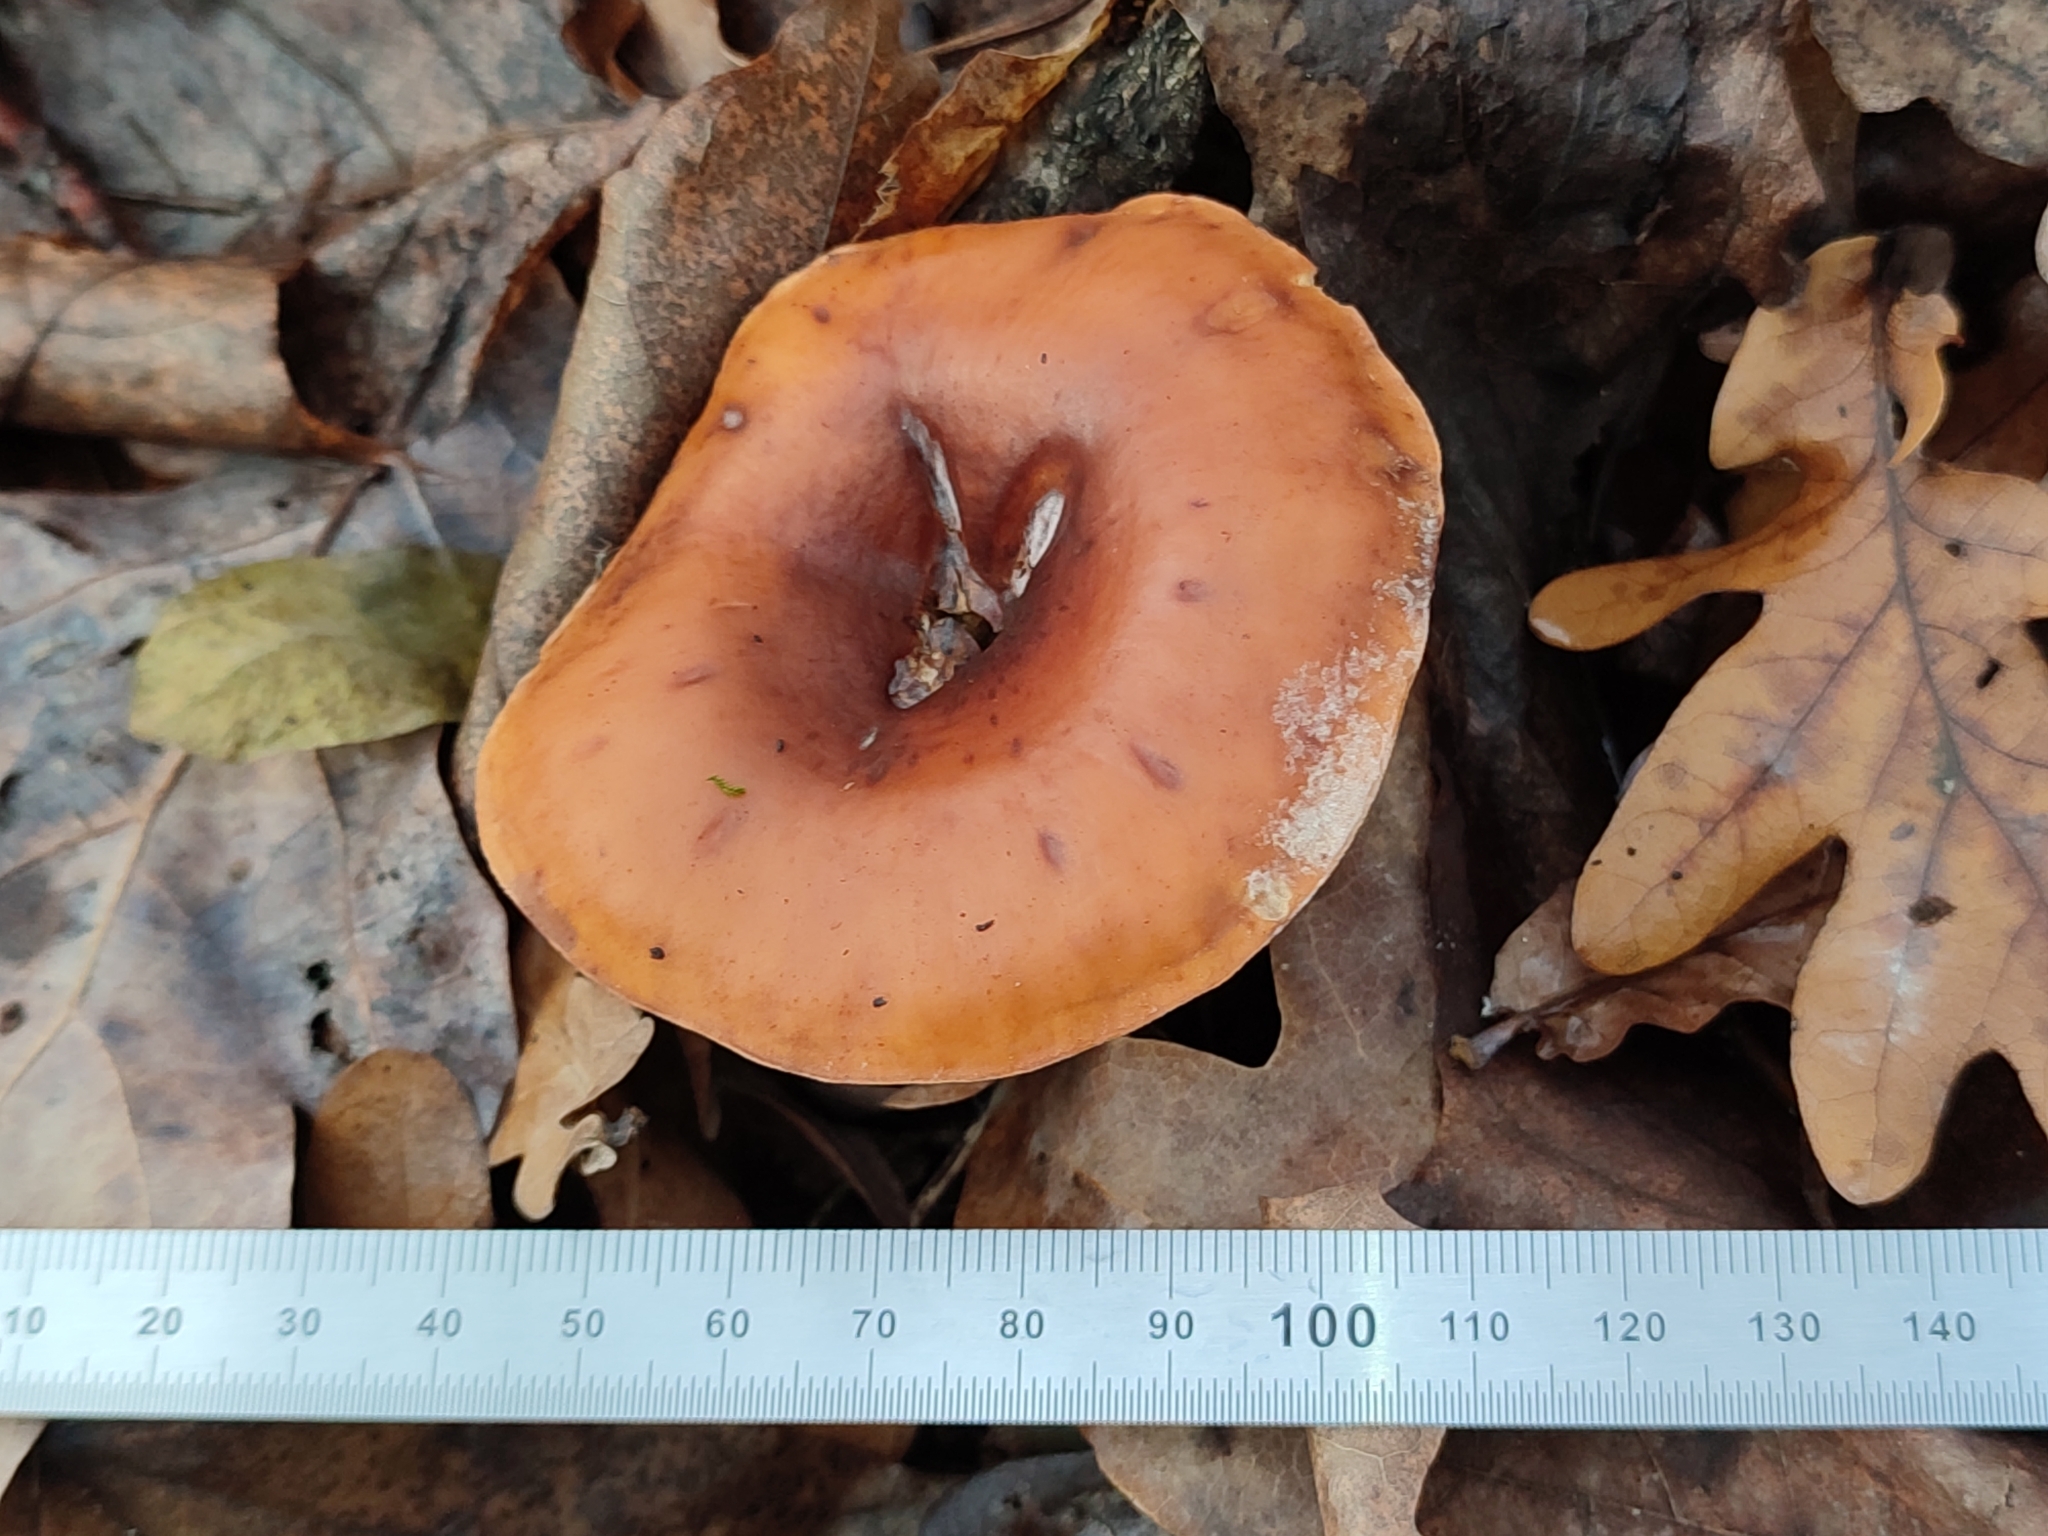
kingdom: Fungi
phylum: Basidiomycota
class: Agaricomycetes
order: Agaricales
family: Tricholomataceae
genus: Paralepista
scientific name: Paralepista flaccida
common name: Tawny funnel cap
